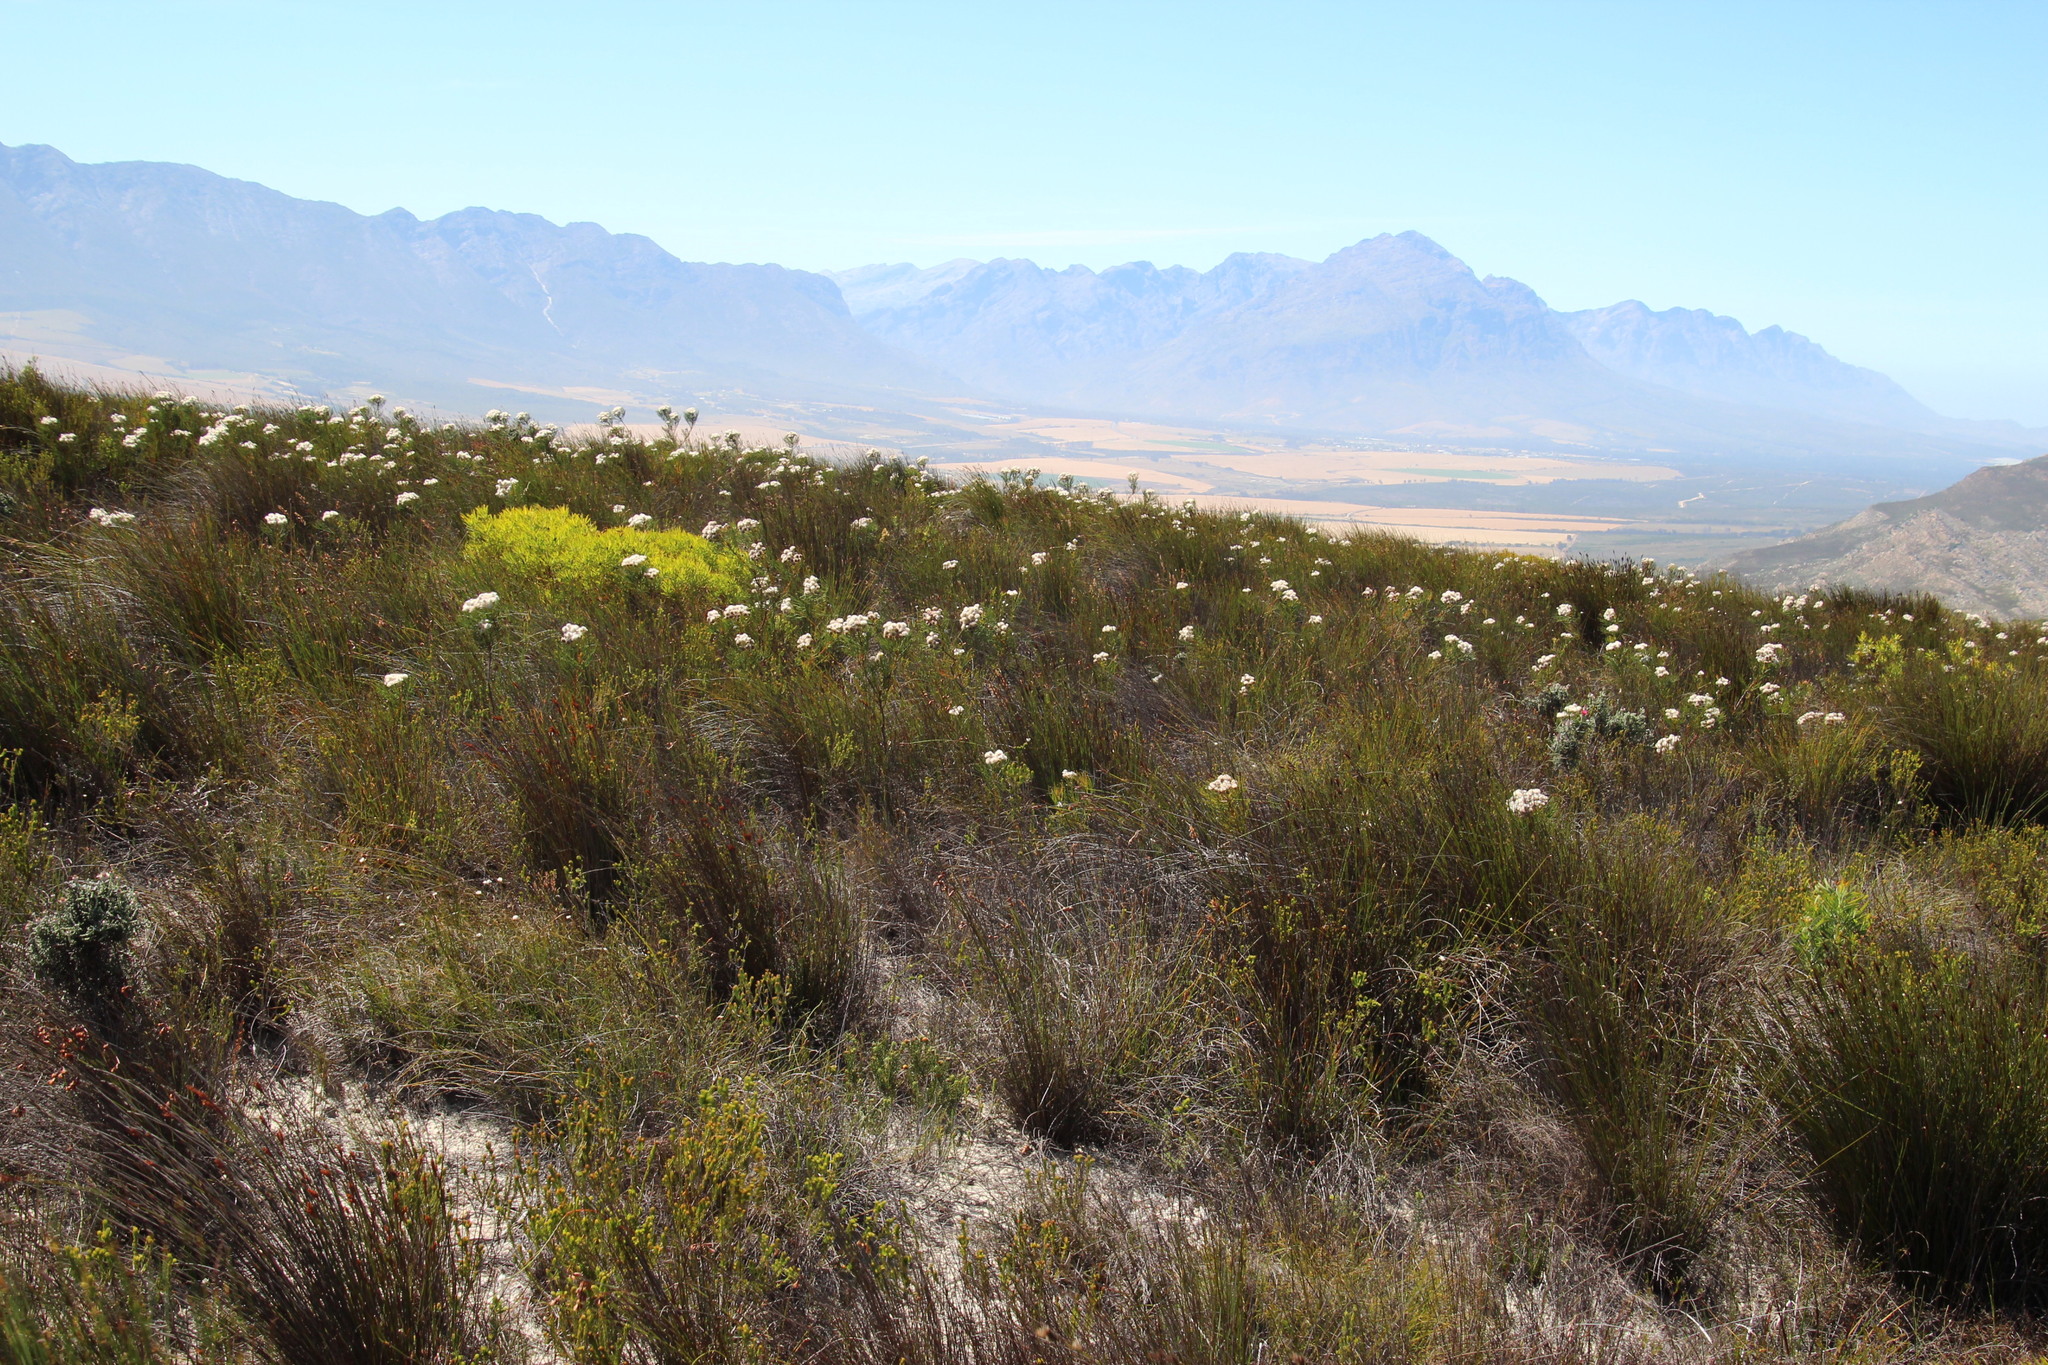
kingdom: Plantae
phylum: Tracheophyta
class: Magnoliopsida
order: Proteales
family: Proteaceae
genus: Serruria
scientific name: Serruria triternata
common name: Tulbagh spiderhead
